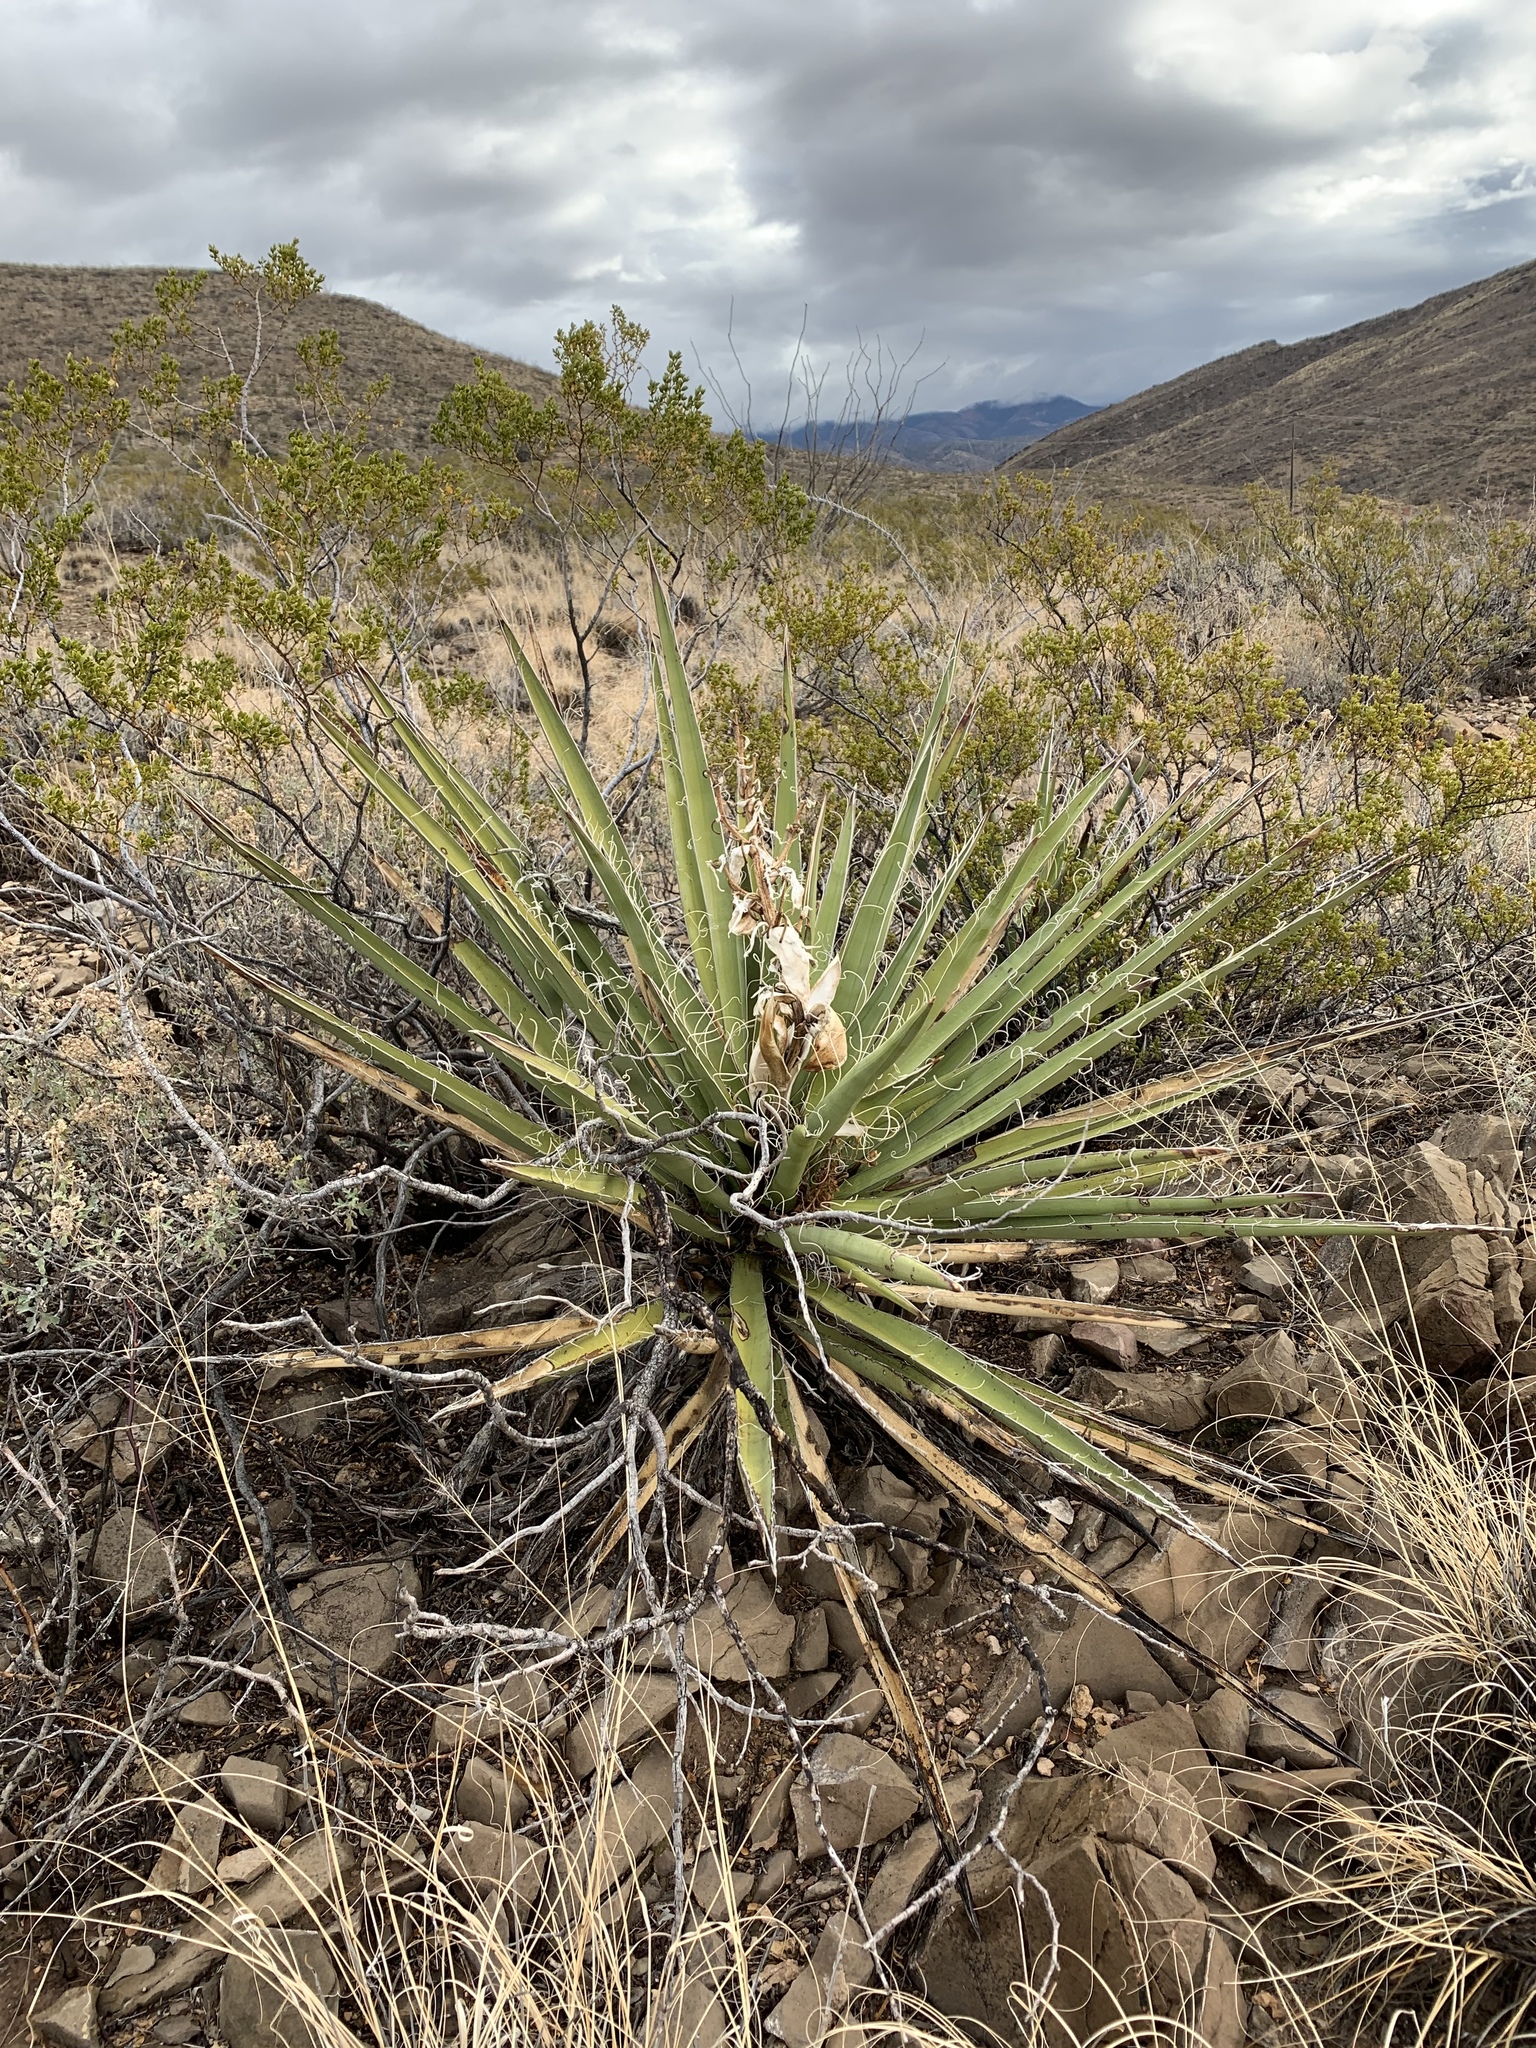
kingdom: Plantae
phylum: Tracheophyta
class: Liliopsida
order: Asparagales
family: Asparagaceae
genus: Yucca
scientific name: Yucca treculiana
